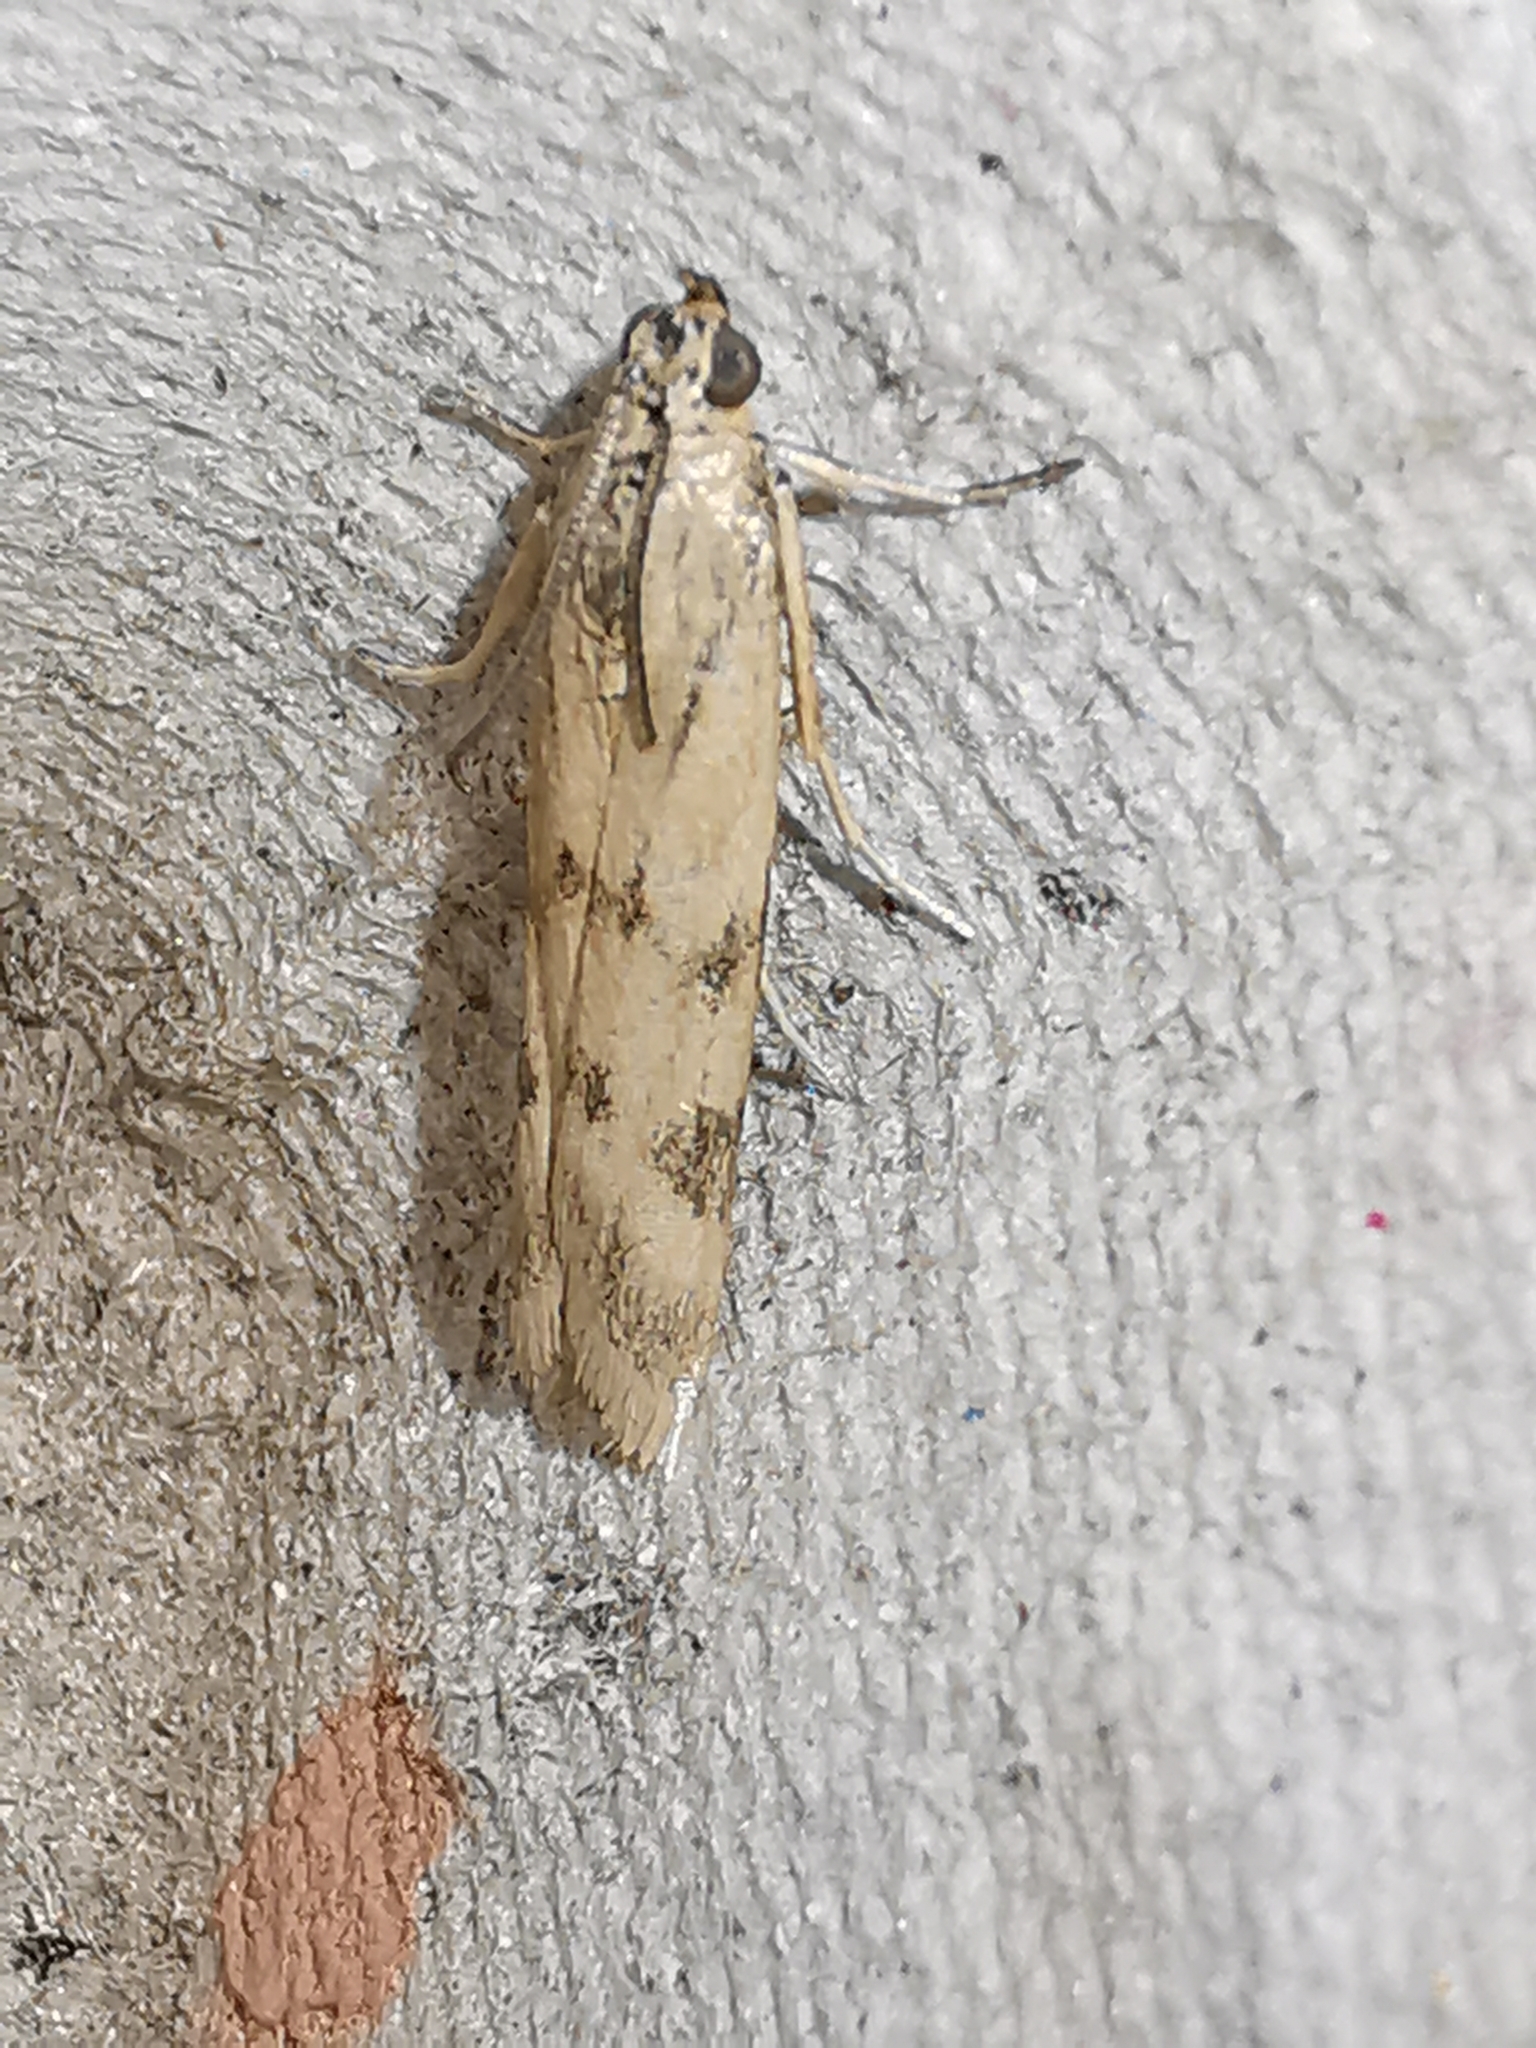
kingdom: Animalia
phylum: Arthropoda
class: Insecta
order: Lepidoptera
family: Pyralidae
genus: Homoeosoma
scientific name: Homoeosoma sinuella
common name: Twin-barred knot-horn
